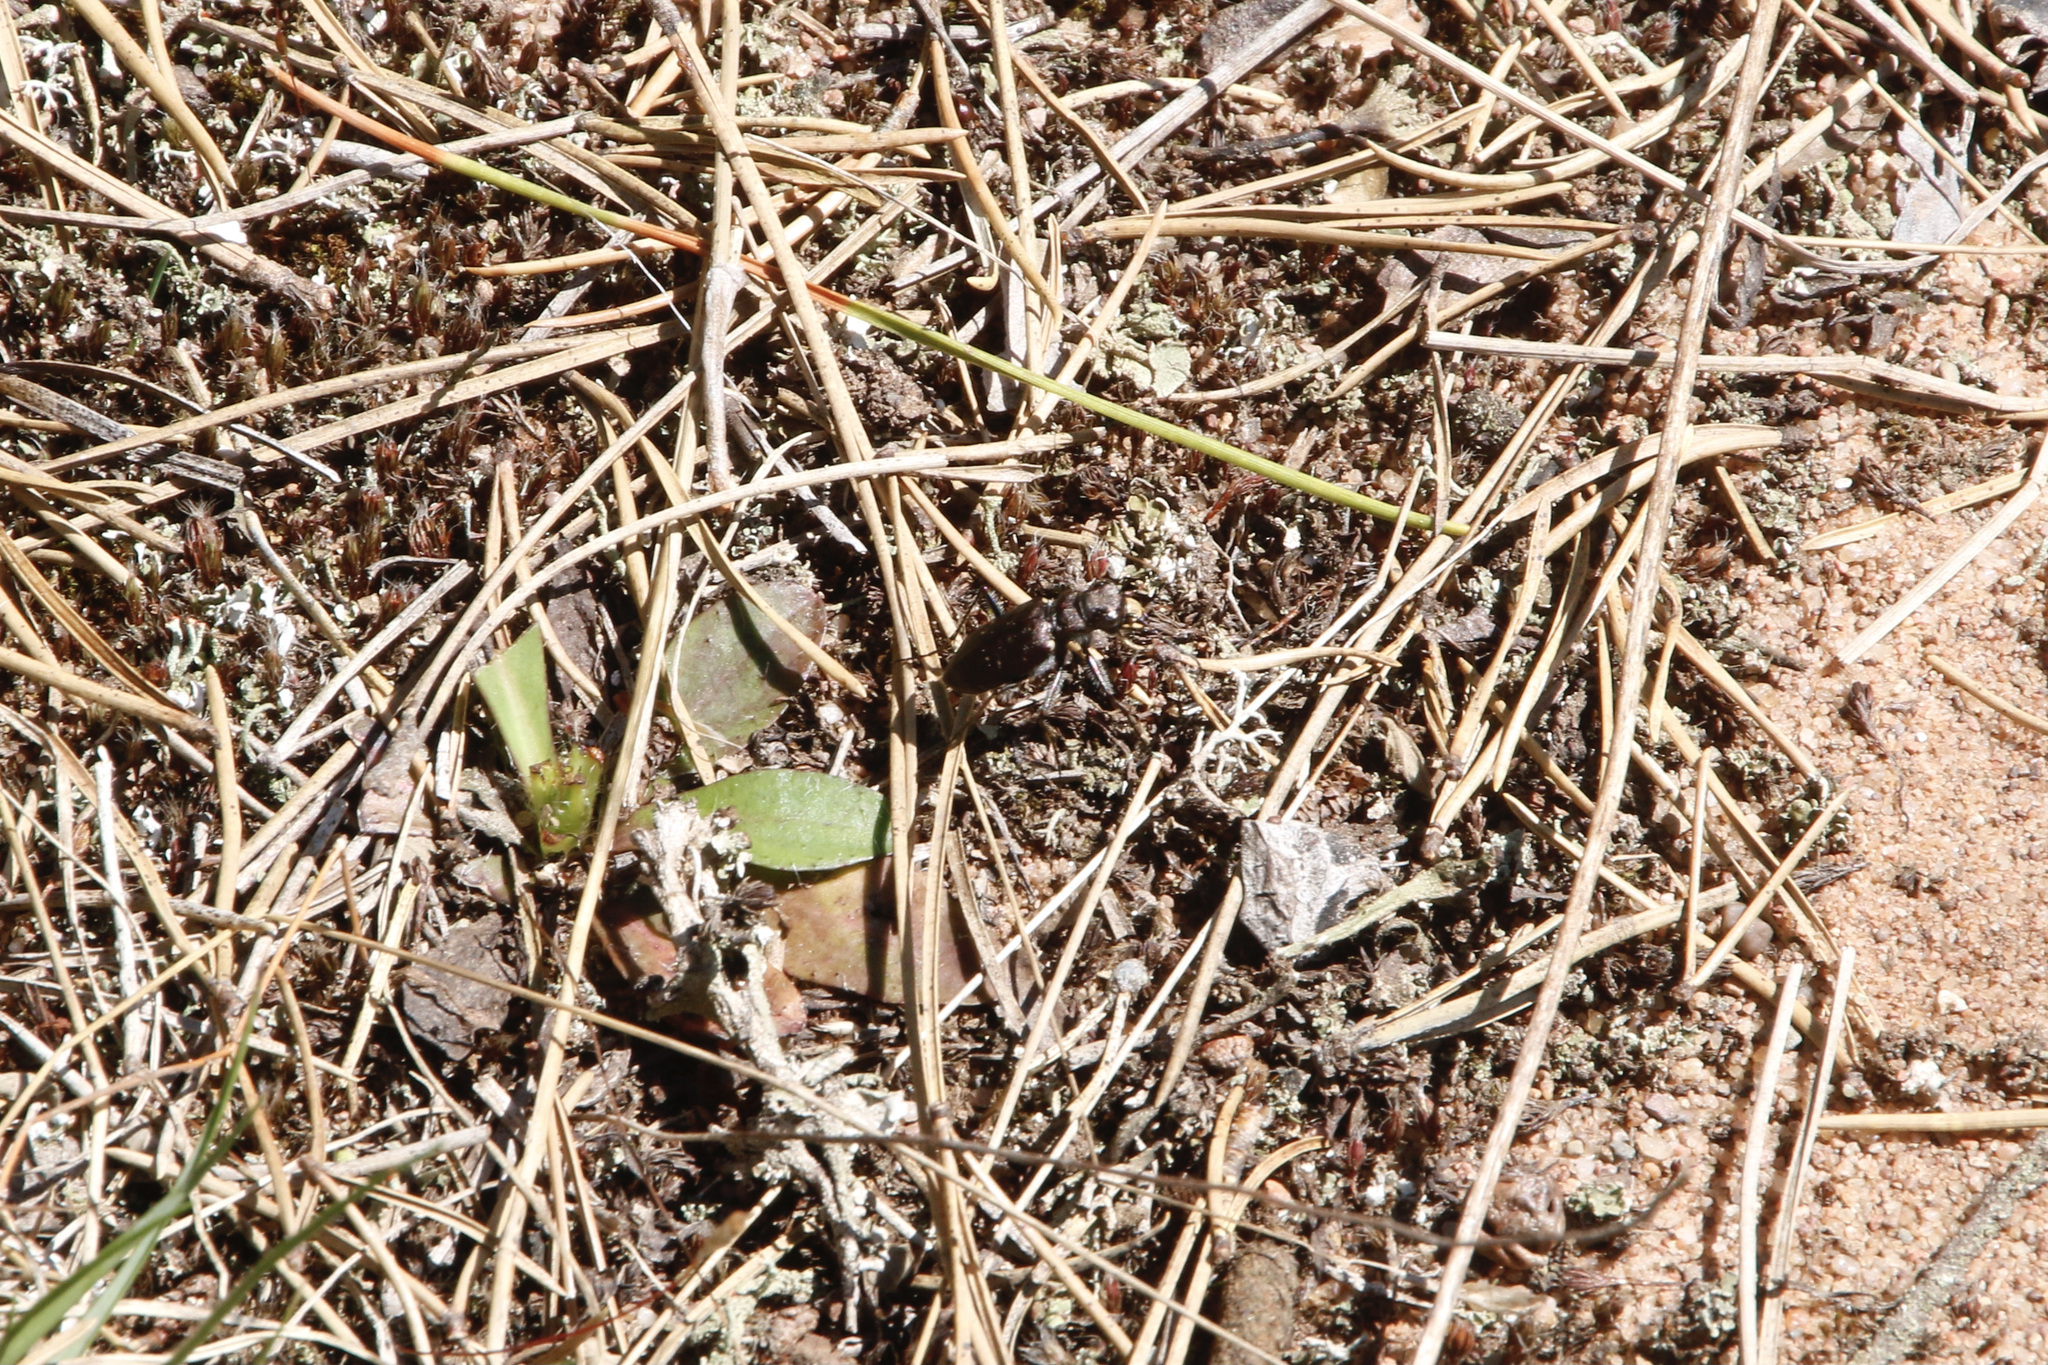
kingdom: Animalia
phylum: Arthropoda
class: Insecta
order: Coleoptera
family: Carabidae
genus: Cicindela
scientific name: Cicindela longilabris
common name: Boreal long-lipped tiger beetle
